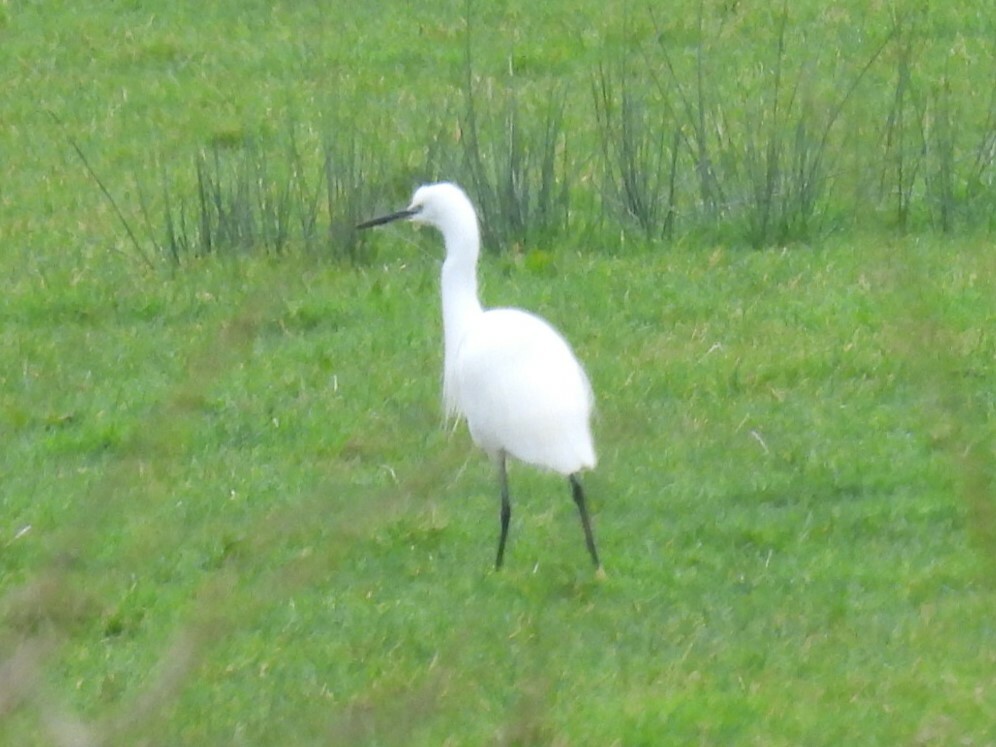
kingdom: Animalia
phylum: Chordata
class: Aves
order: Pelecaniformes
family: Ardeidae
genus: Egretta
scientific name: Egretta garzetta
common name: Little egret
